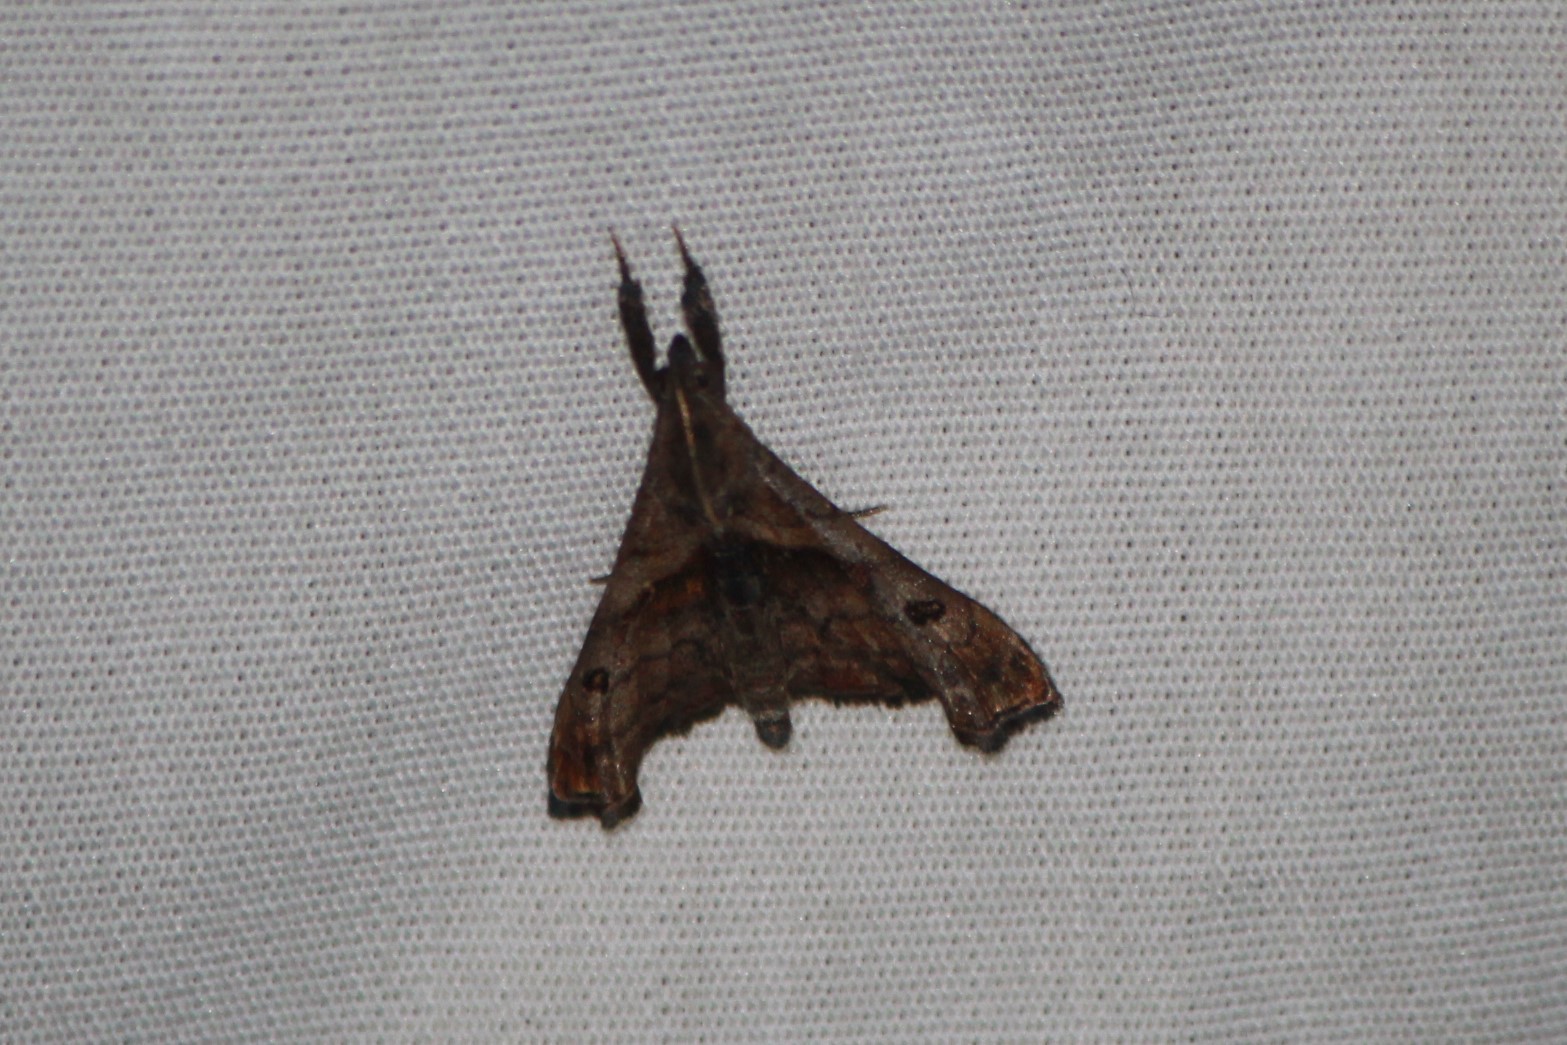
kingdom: Animalia
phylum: Arthropoda
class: Insecta
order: Lepidoptera
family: Erebidae
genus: Palthis
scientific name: Palthis angulalis
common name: Dark-spotted palthis moth
